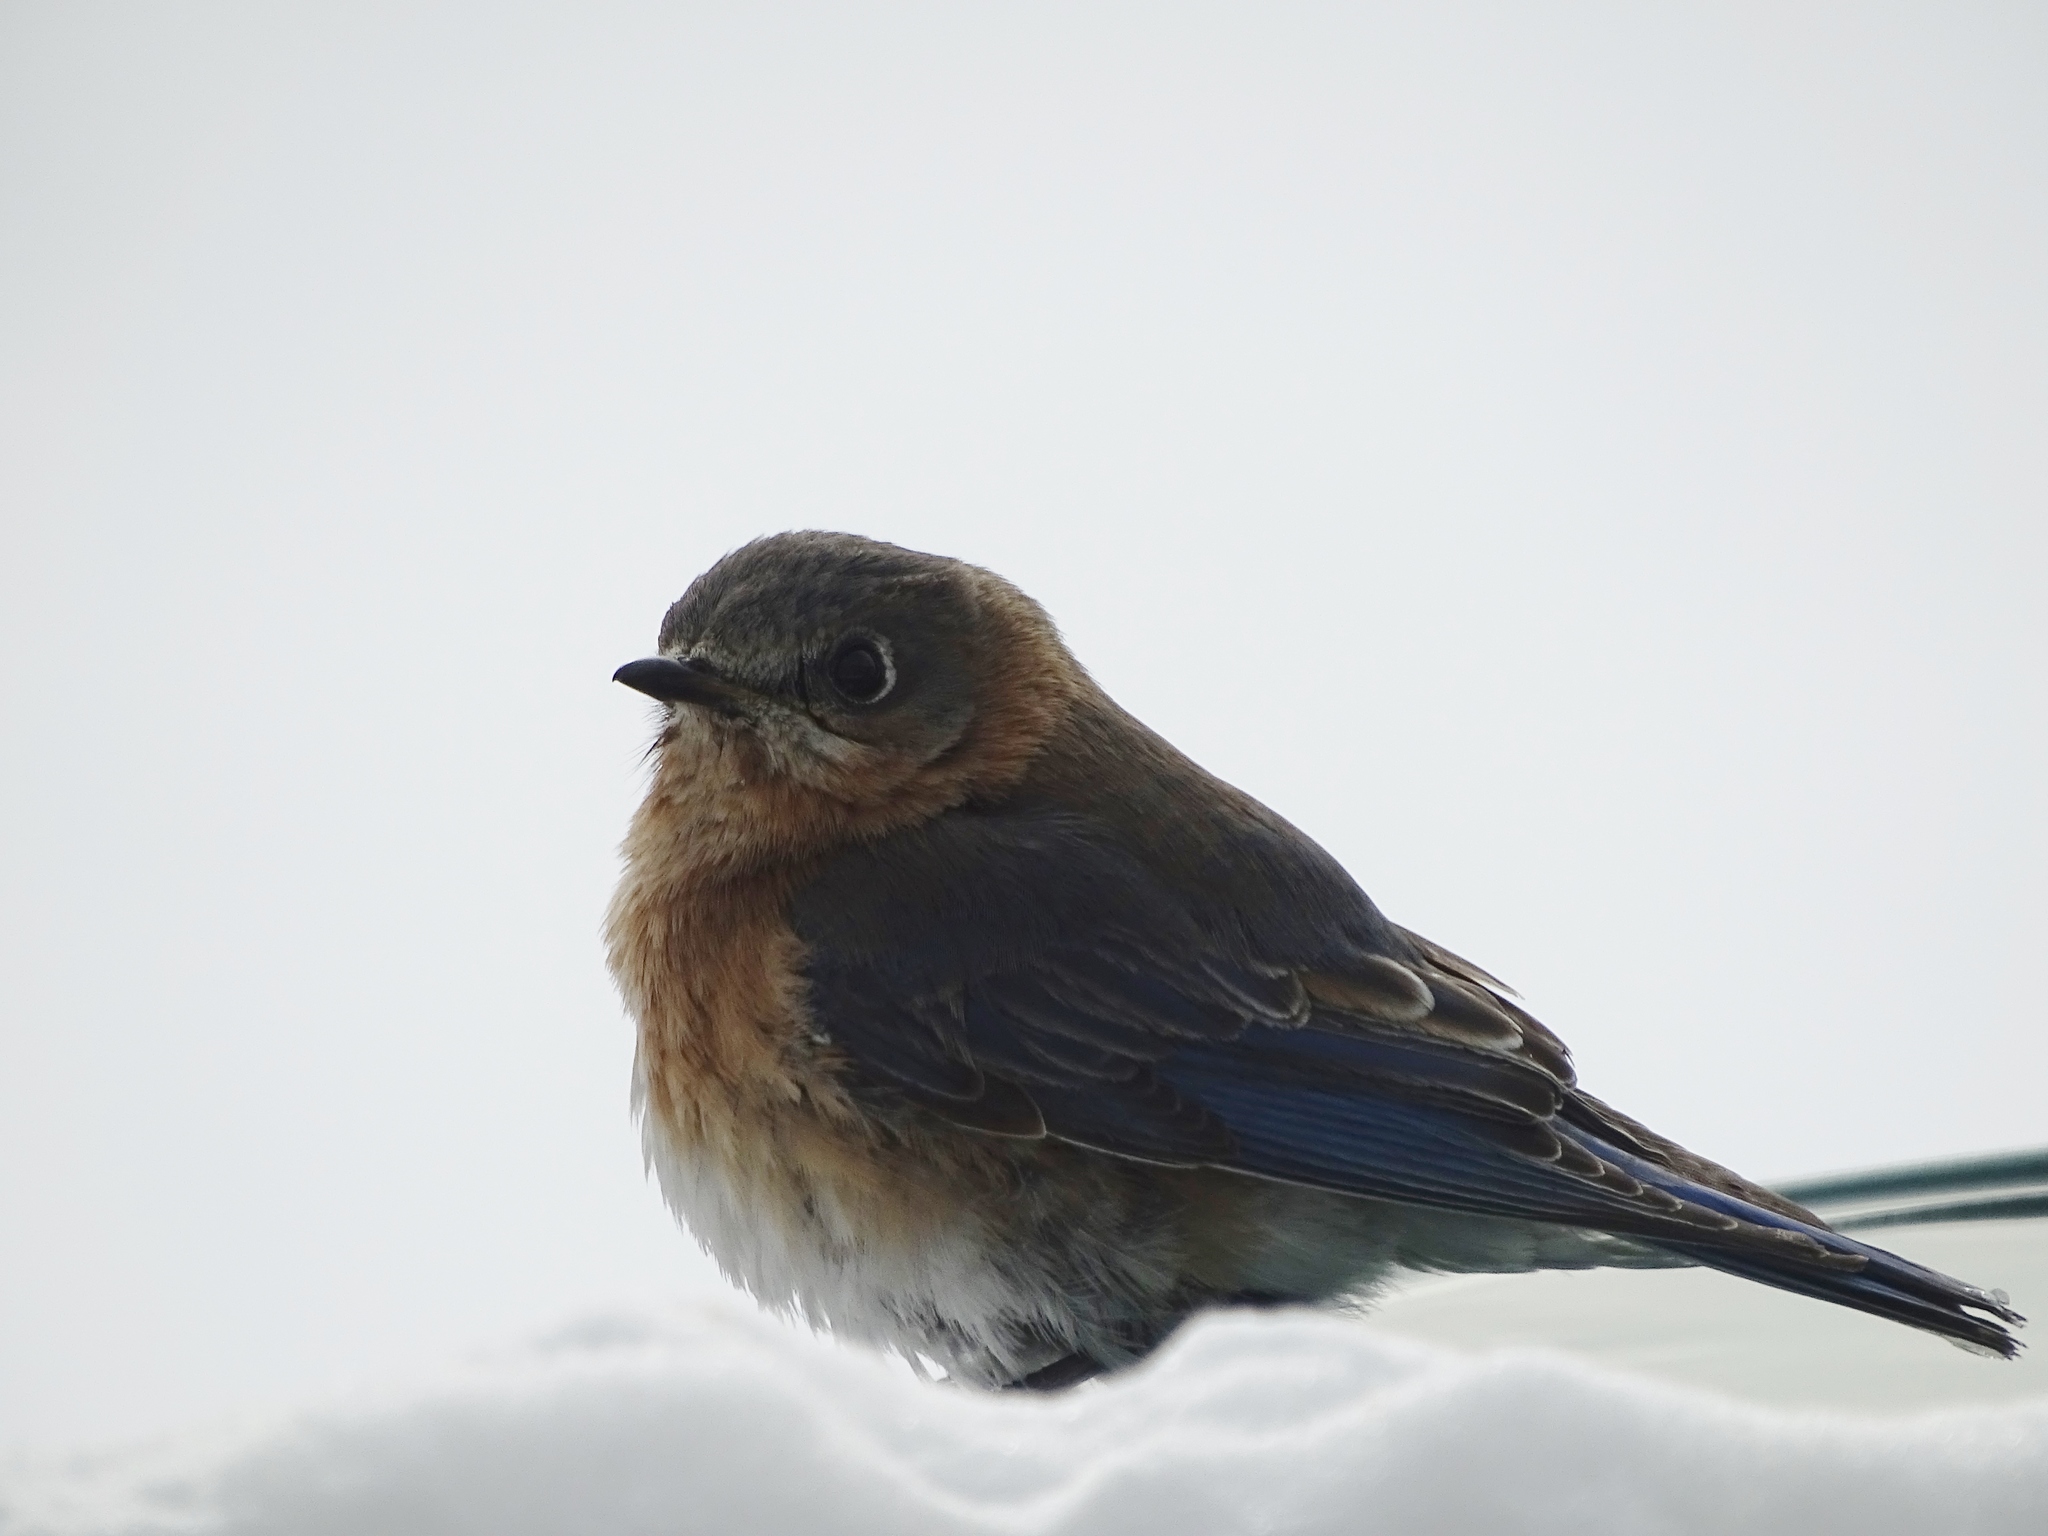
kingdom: Animalia
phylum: Chordata
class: Aves
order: Passeriformes
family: Turdidae
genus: Sialia
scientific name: Sialia sialis
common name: Eastern bluebird
